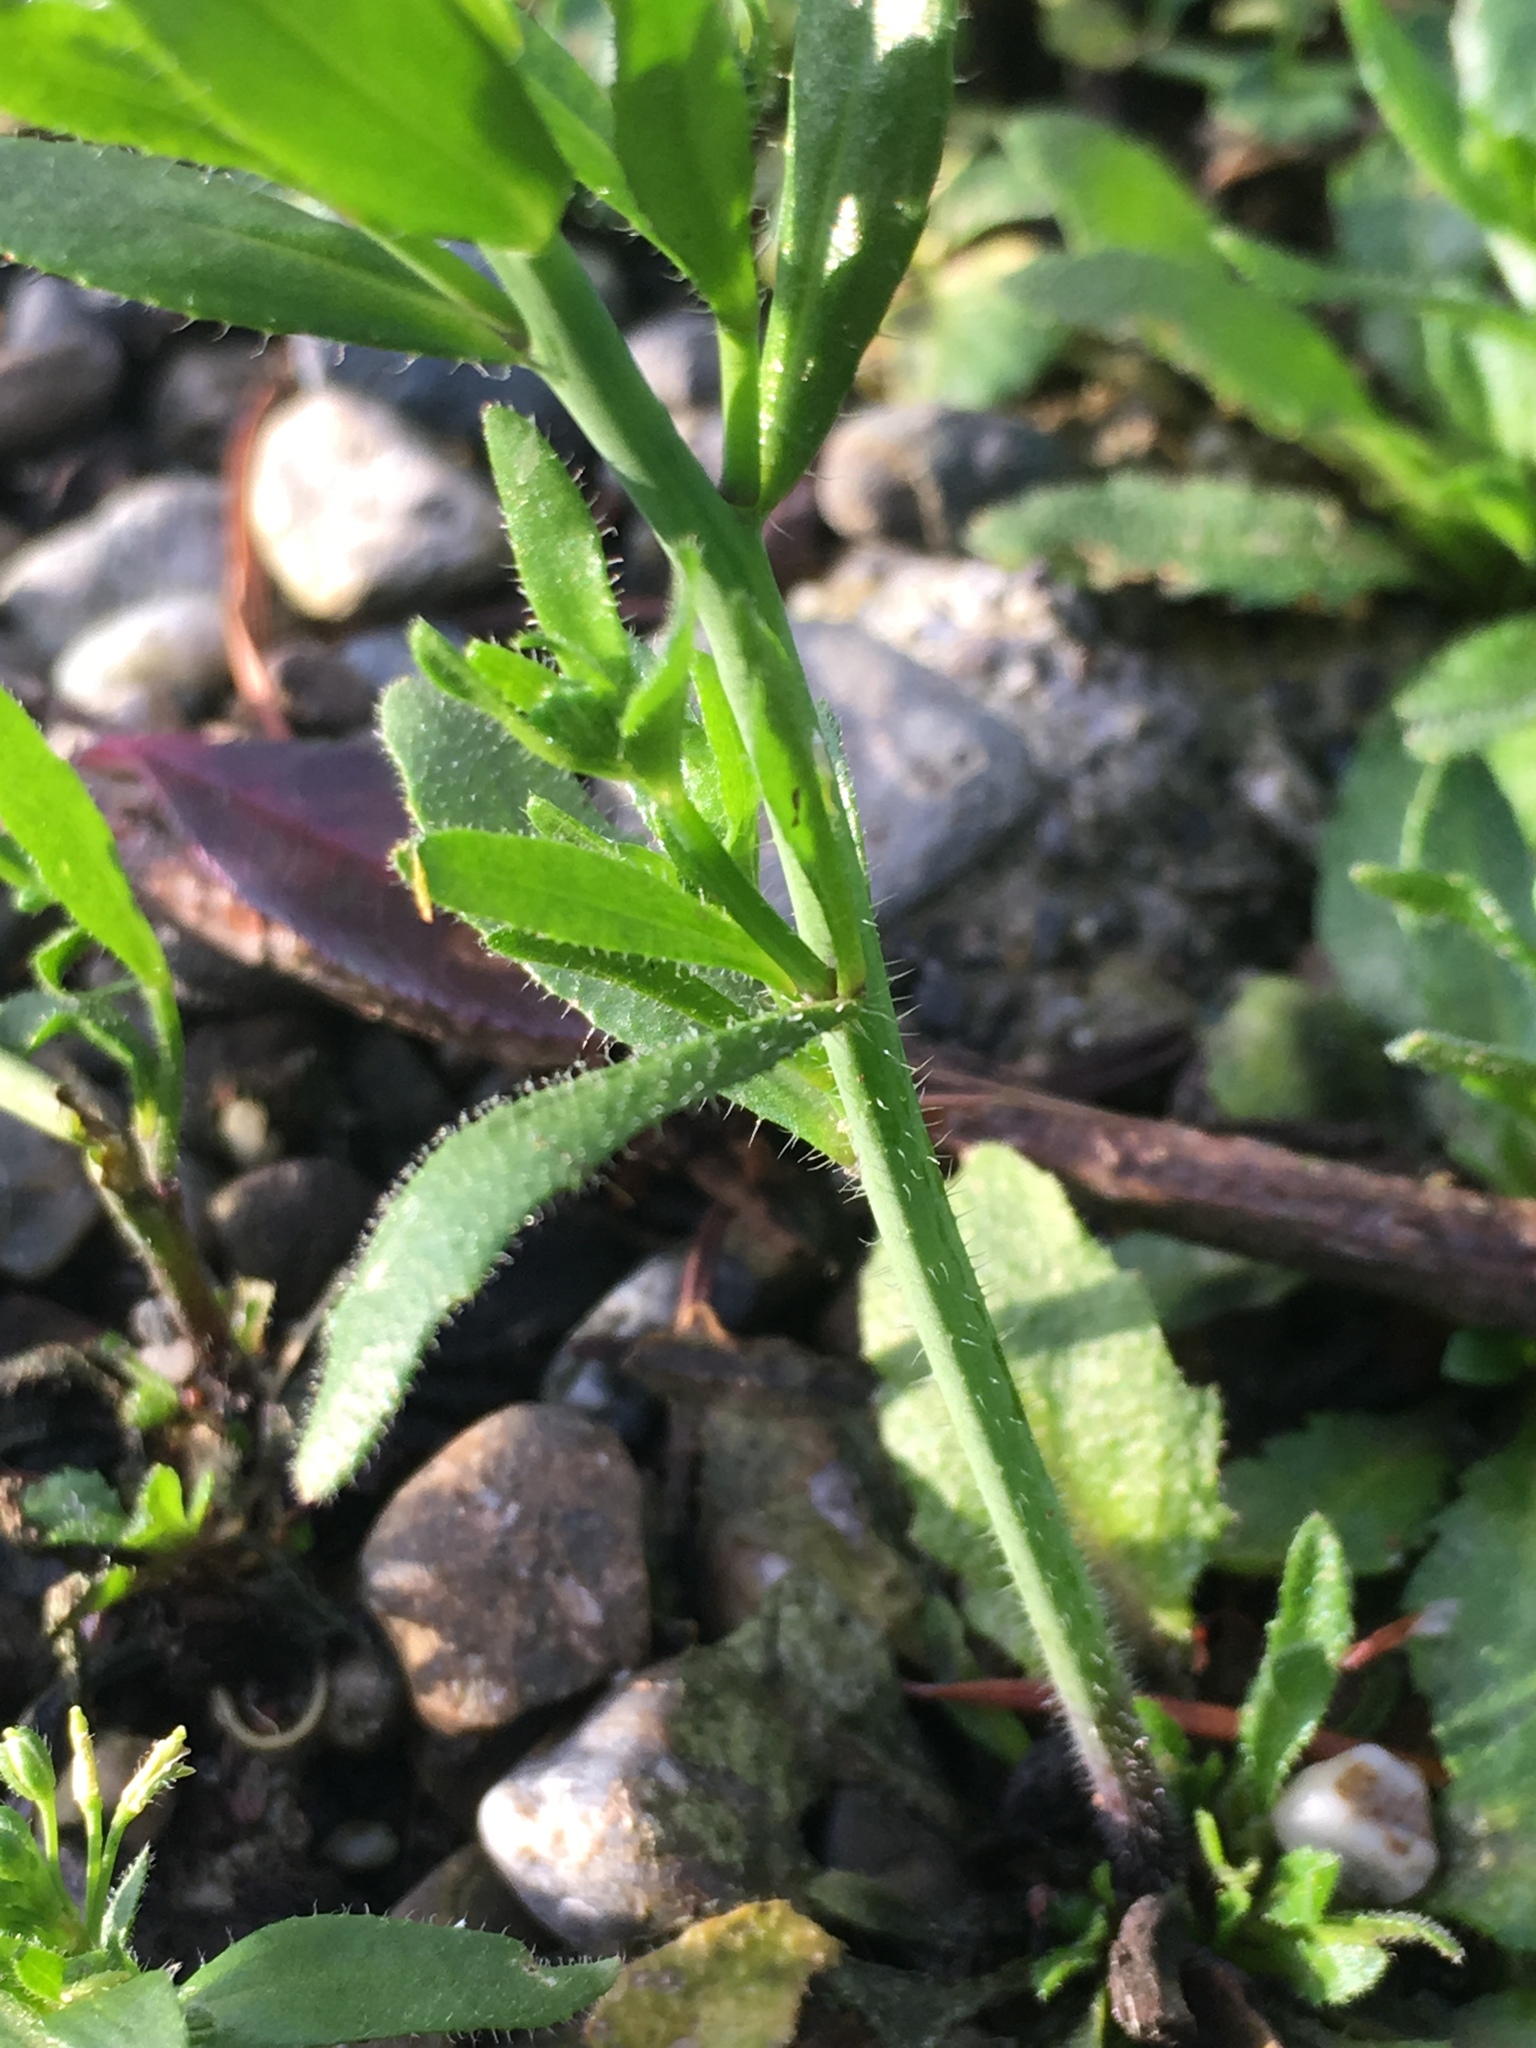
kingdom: Plantae
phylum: Tracheophyta
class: Magnoliopsida
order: Brassicales
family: Brassicaceae
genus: Arabidopsis
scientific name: Arabidopsis thaliana
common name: Thale cress
